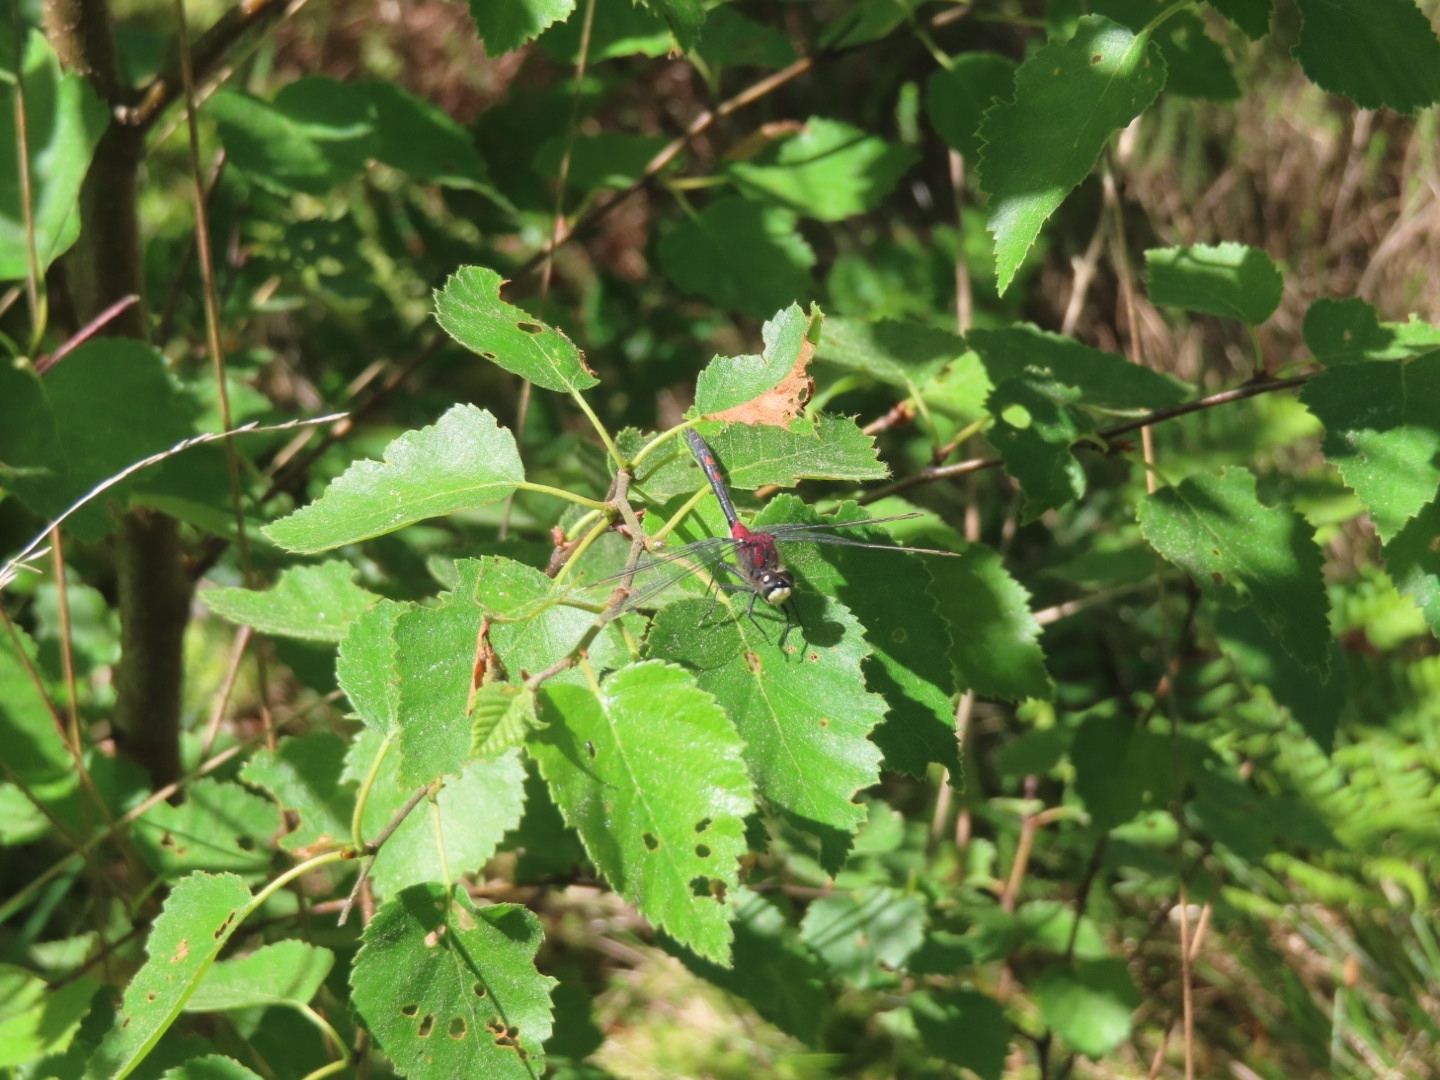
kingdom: Animalia
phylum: Arthropoda
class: Insecta
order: Odonata
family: Libellulidae
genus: Leucorrhinia
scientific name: Leucorrhinia dubia
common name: White-faced darter
